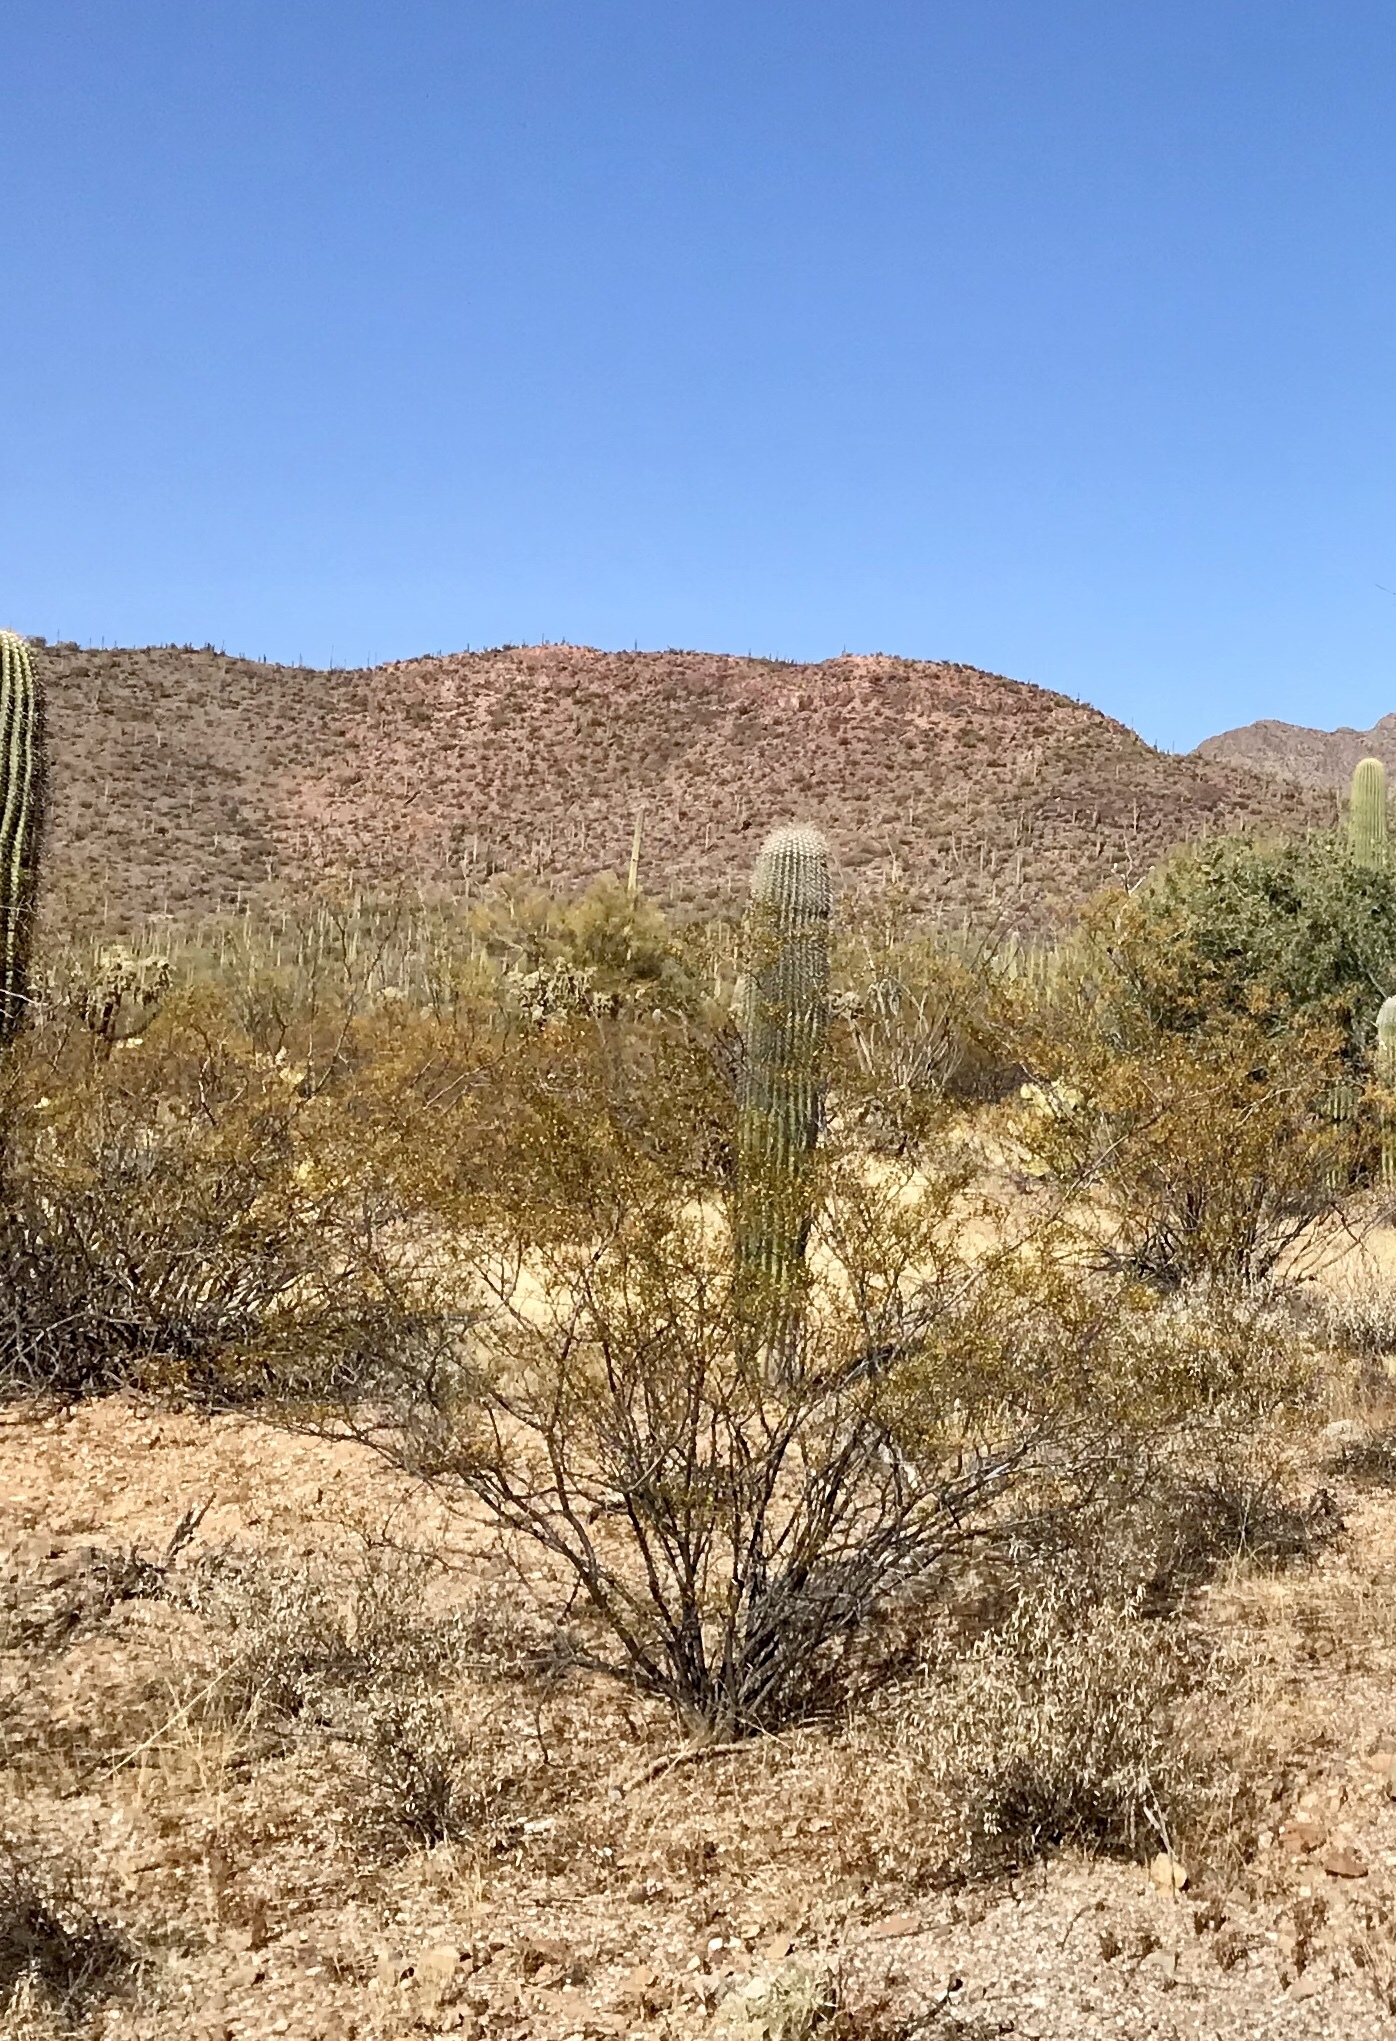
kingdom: Plantae
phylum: Tracheophyta
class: Magnoliopsida
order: Zygophyllales
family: Zygophyllaceae
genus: Larrea
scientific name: Larrea tridentata
